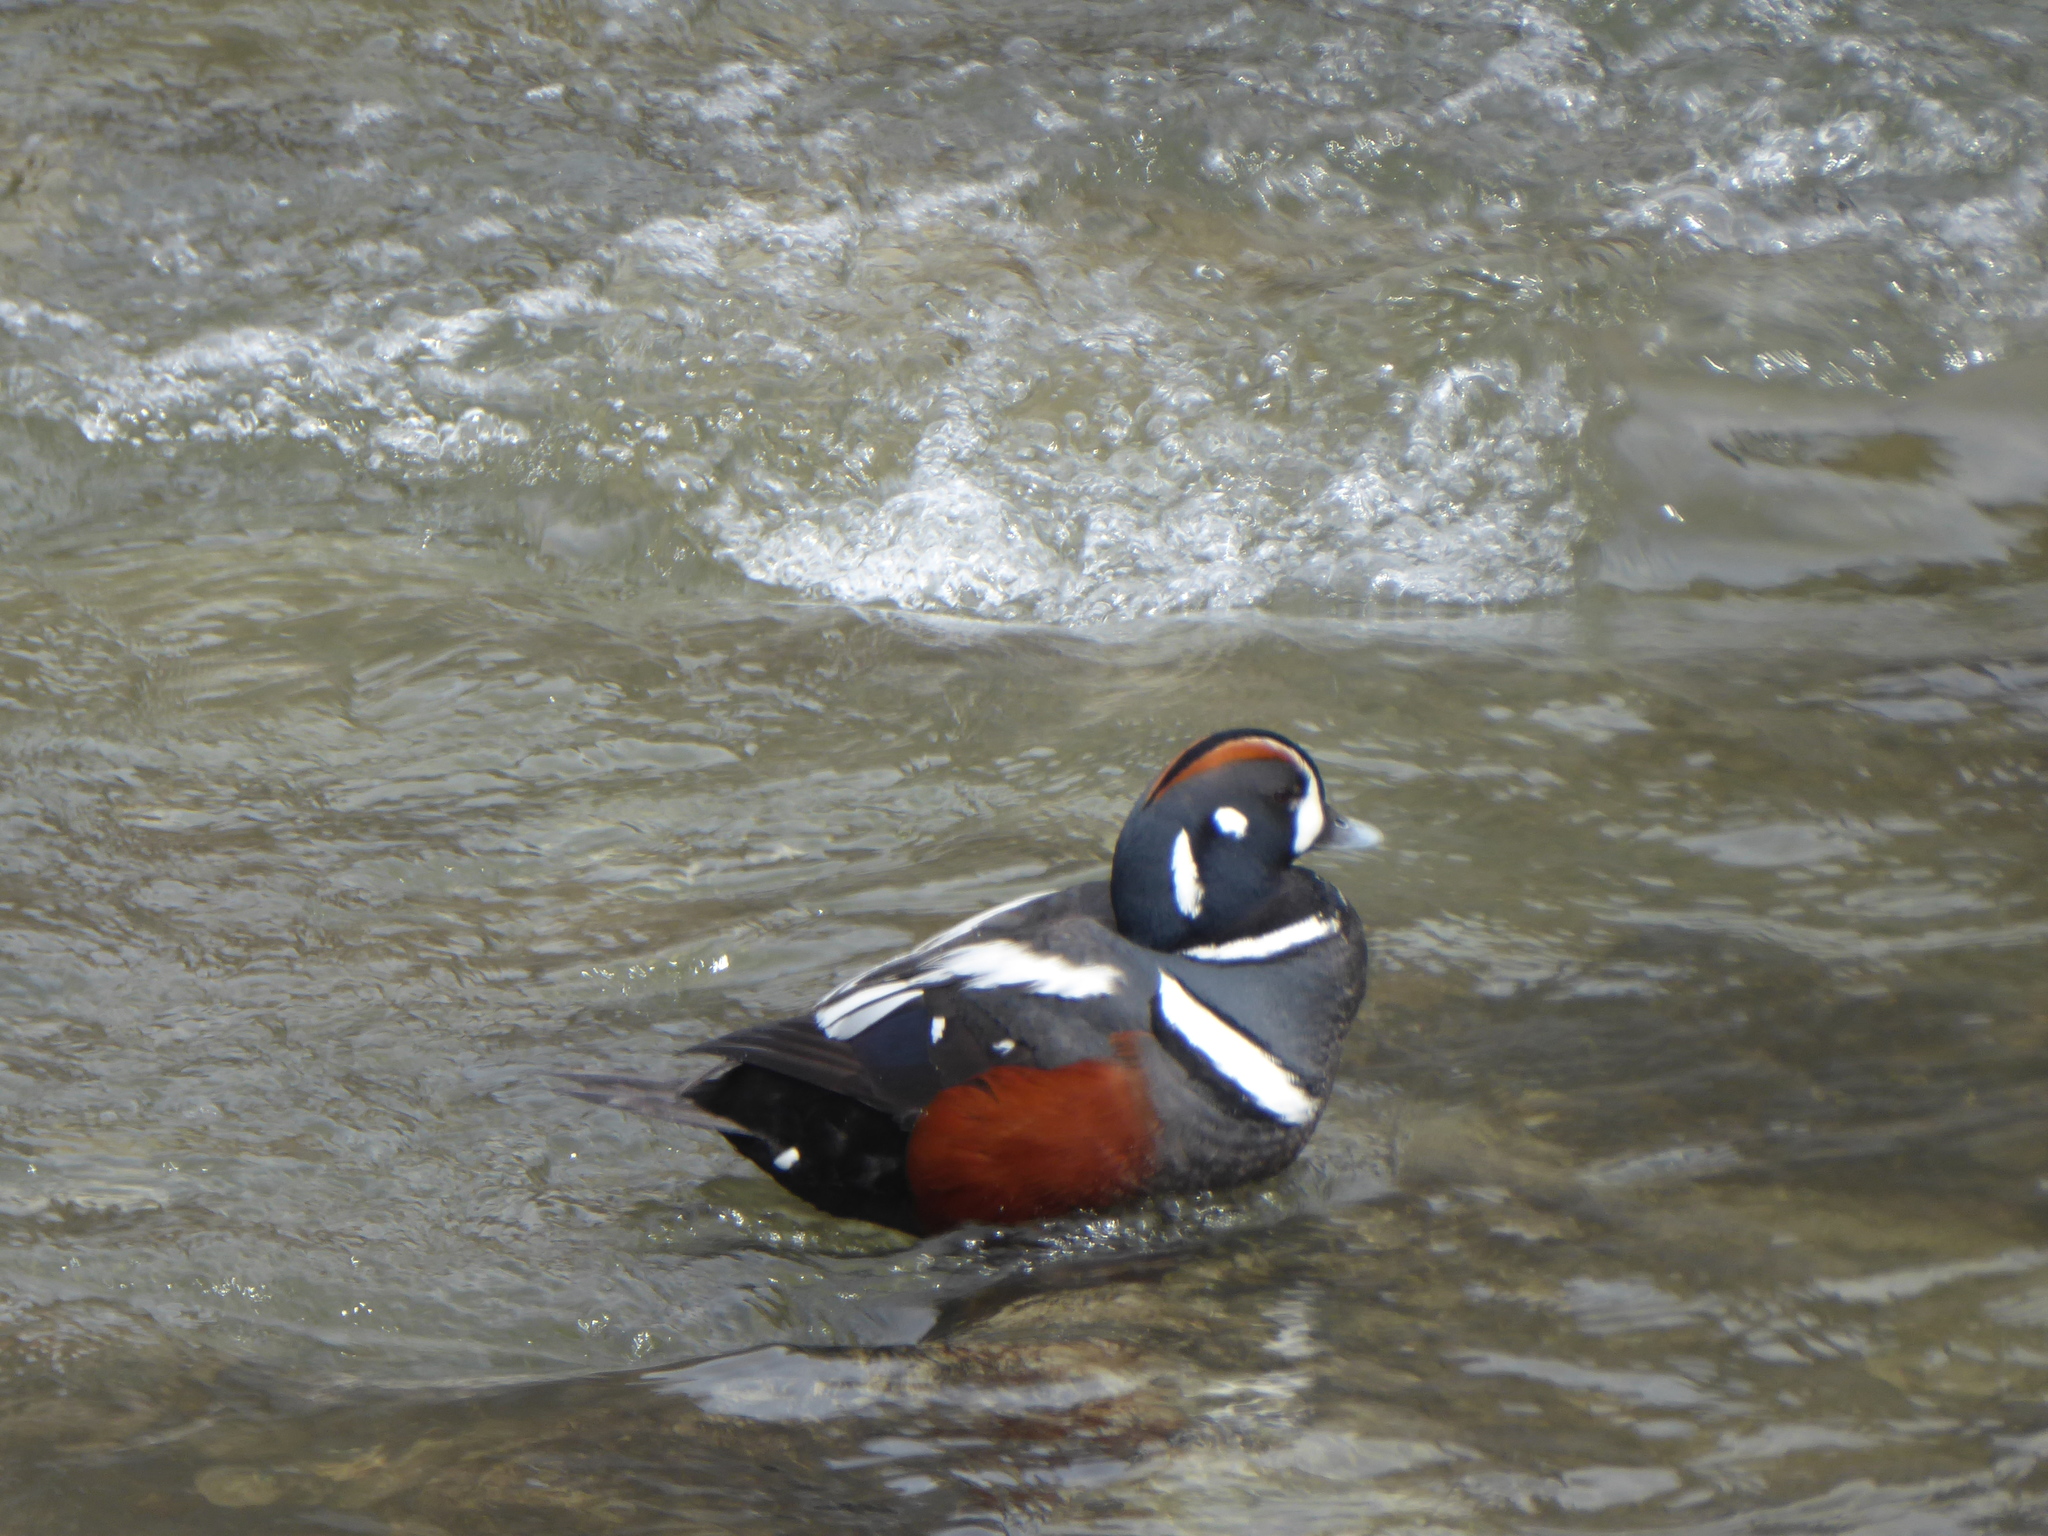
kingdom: Animalia
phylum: Chordata
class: Aves
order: Anseriformes
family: Anatidae
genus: Histrionicus
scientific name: Histrionicus histrionicus
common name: Harlequin duck
